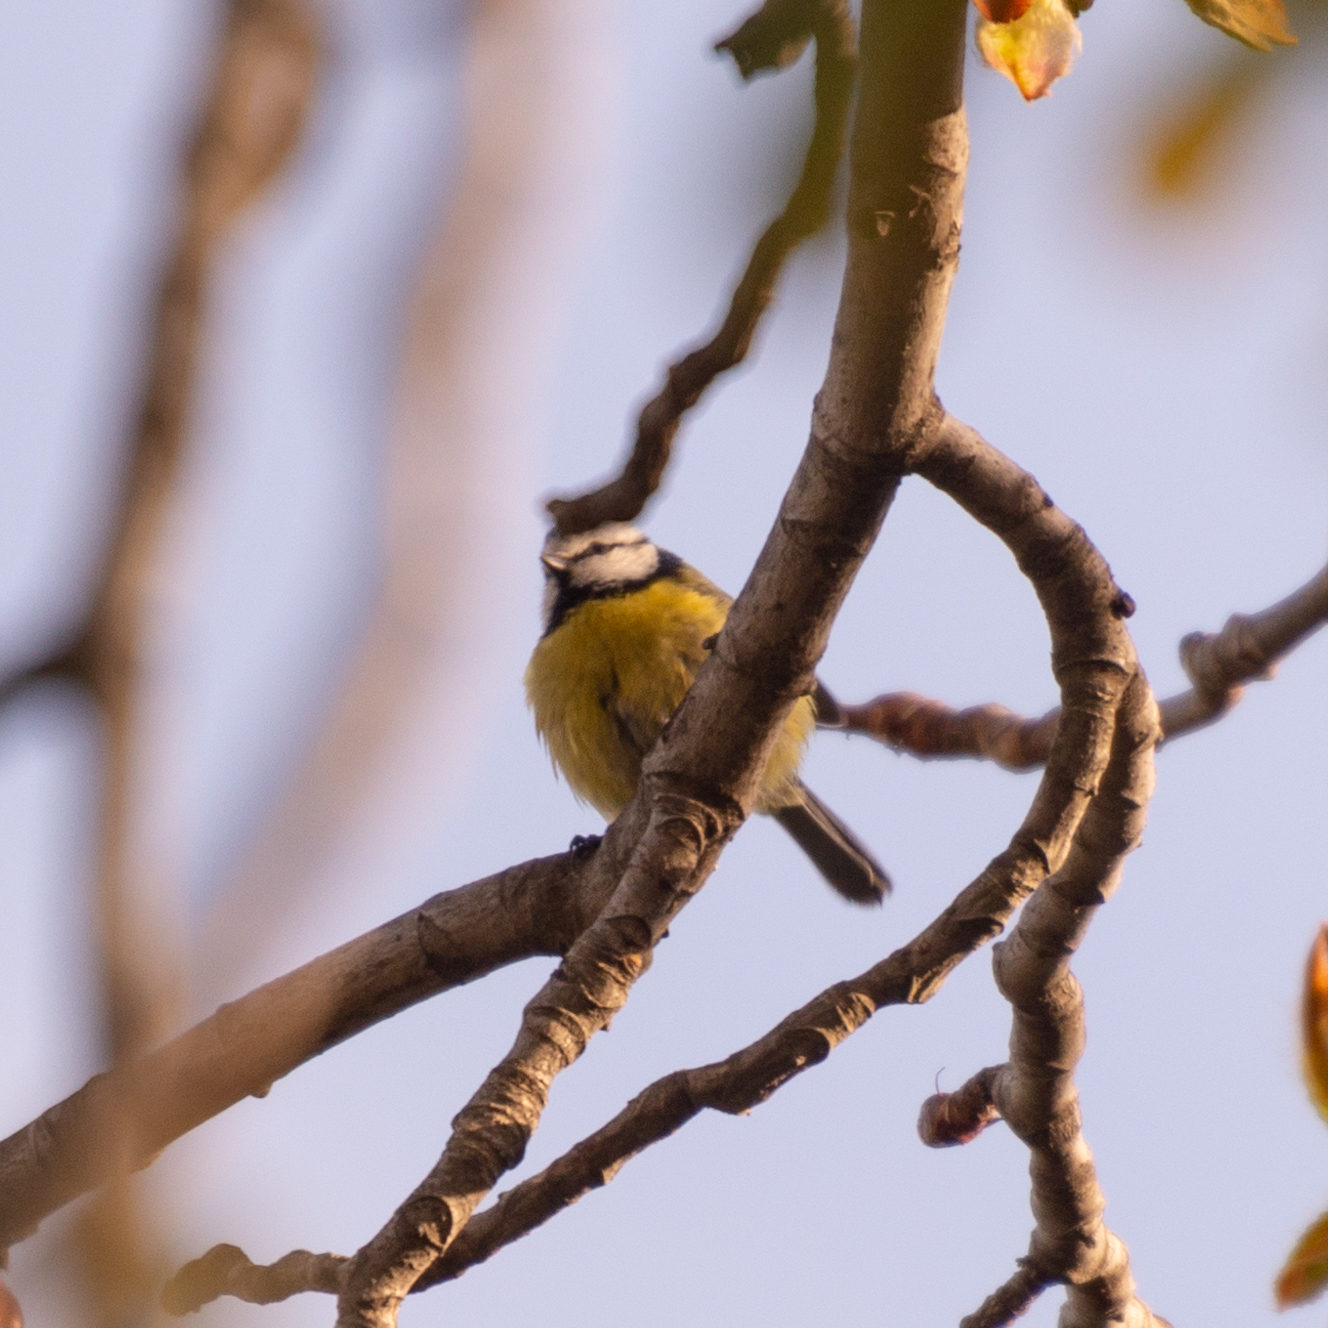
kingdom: Animalia
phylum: Chordata
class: Aves
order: Passeriformes
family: Paridae
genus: Cyanistes
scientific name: Cyanistes caeruleus
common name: Eurasian blue tit
